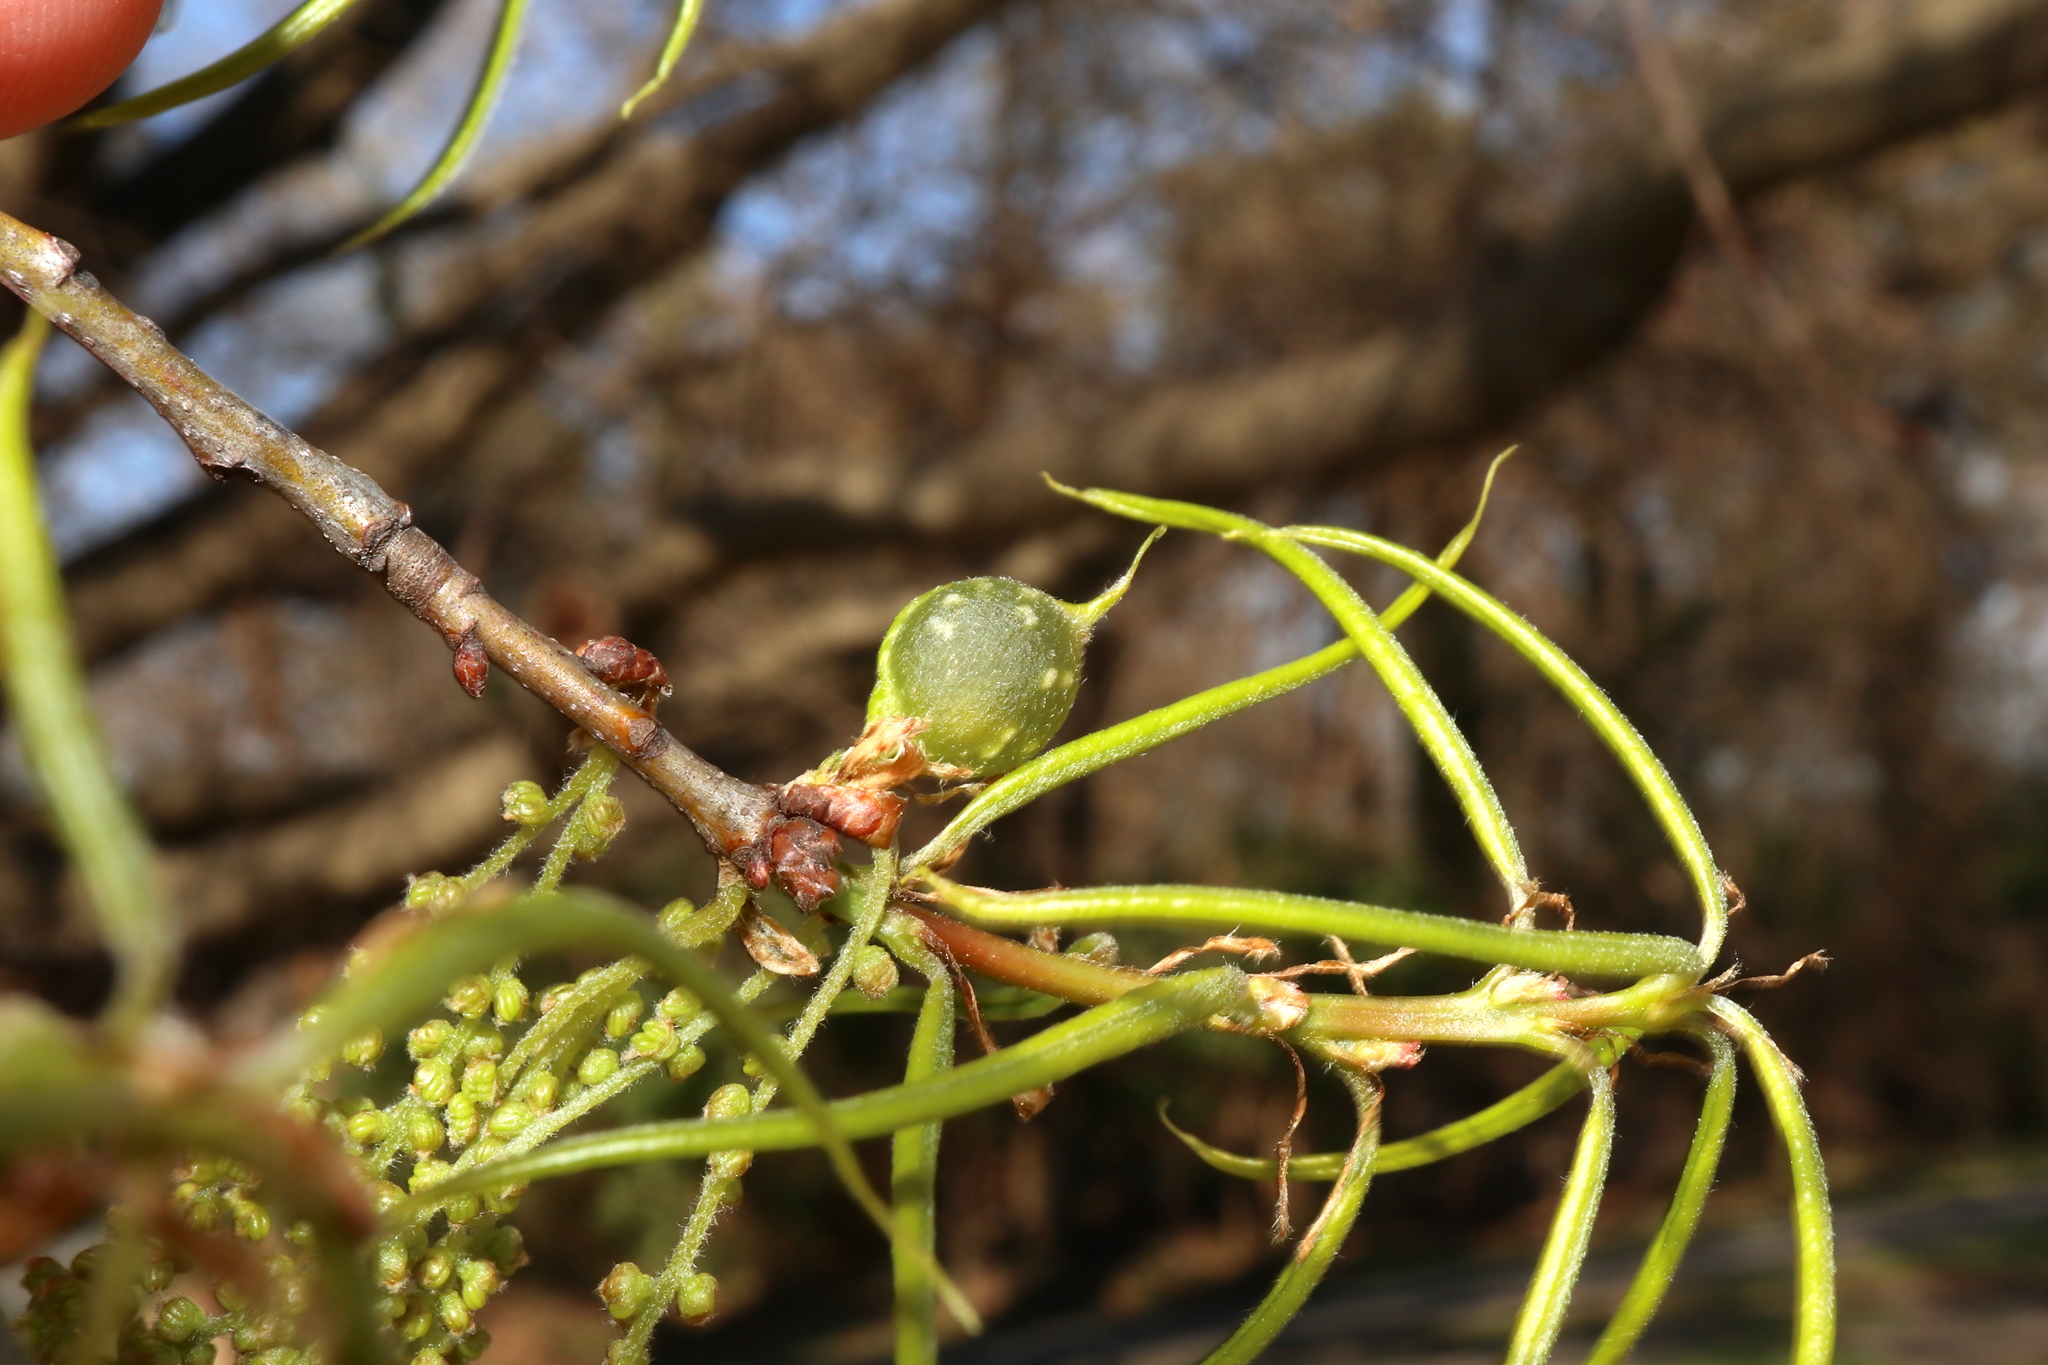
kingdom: Animalia
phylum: Arthropoda
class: Insecta
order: Hymenoptera
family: Cynipidae
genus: Dryocosmus
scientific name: Dryocosmus
